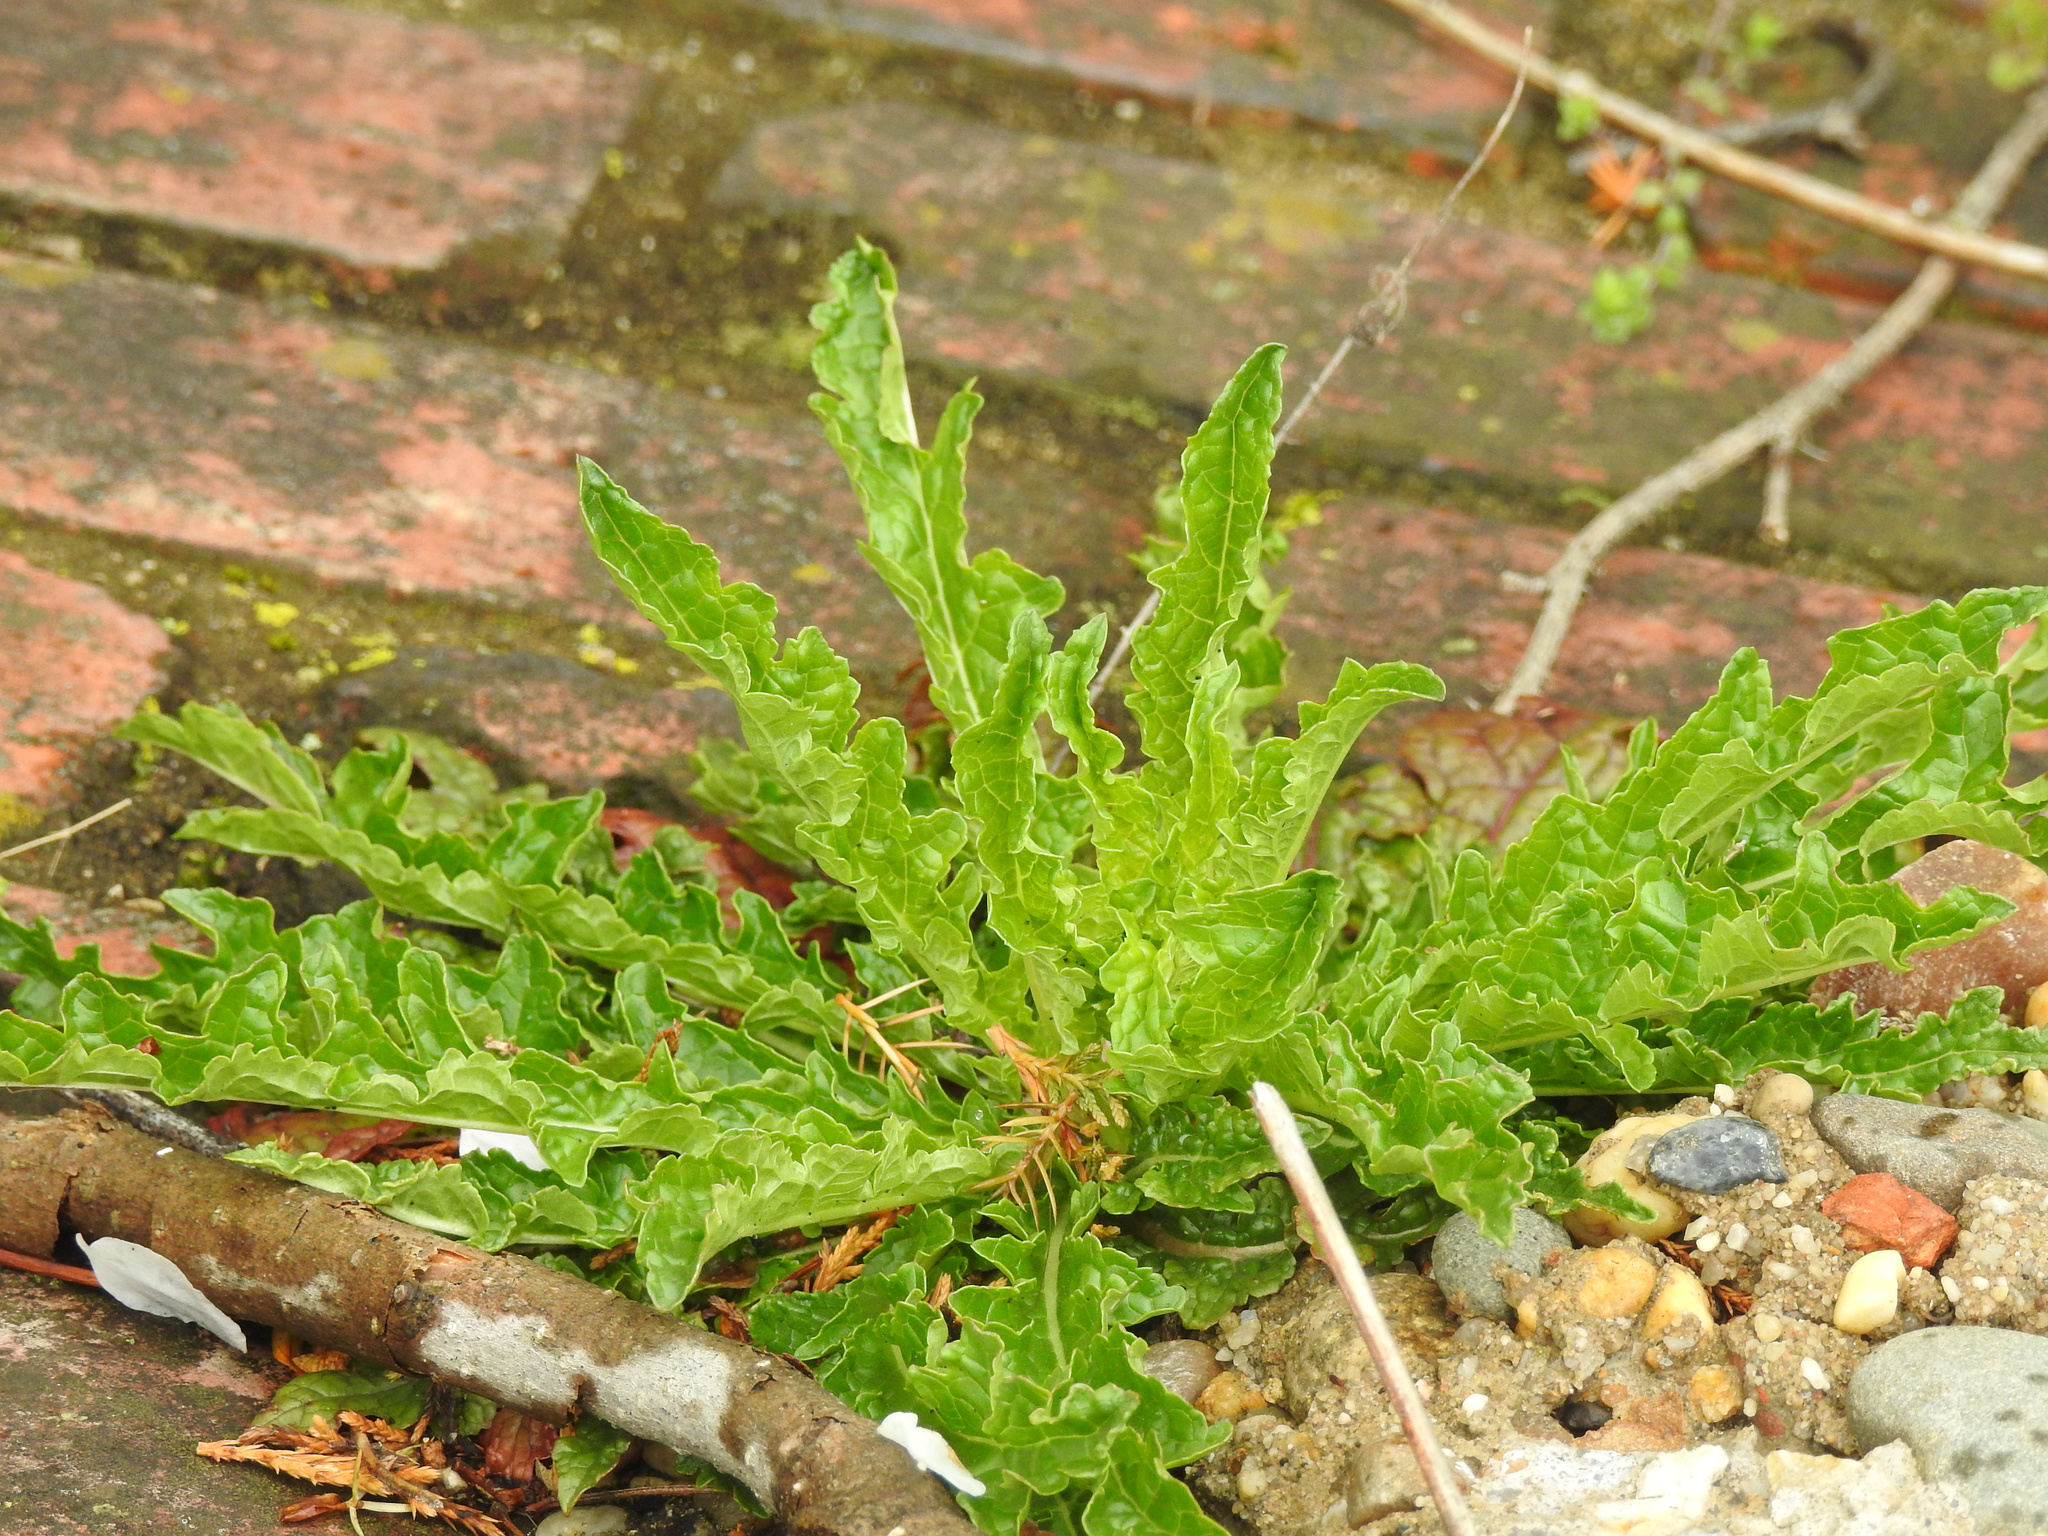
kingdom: Plantae
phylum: Tracheophyta
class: Magnoliopsida
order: Lamiales
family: Scrophulariaceae
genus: Verbascum
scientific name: Verbascum blattaria
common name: Moth mullein
